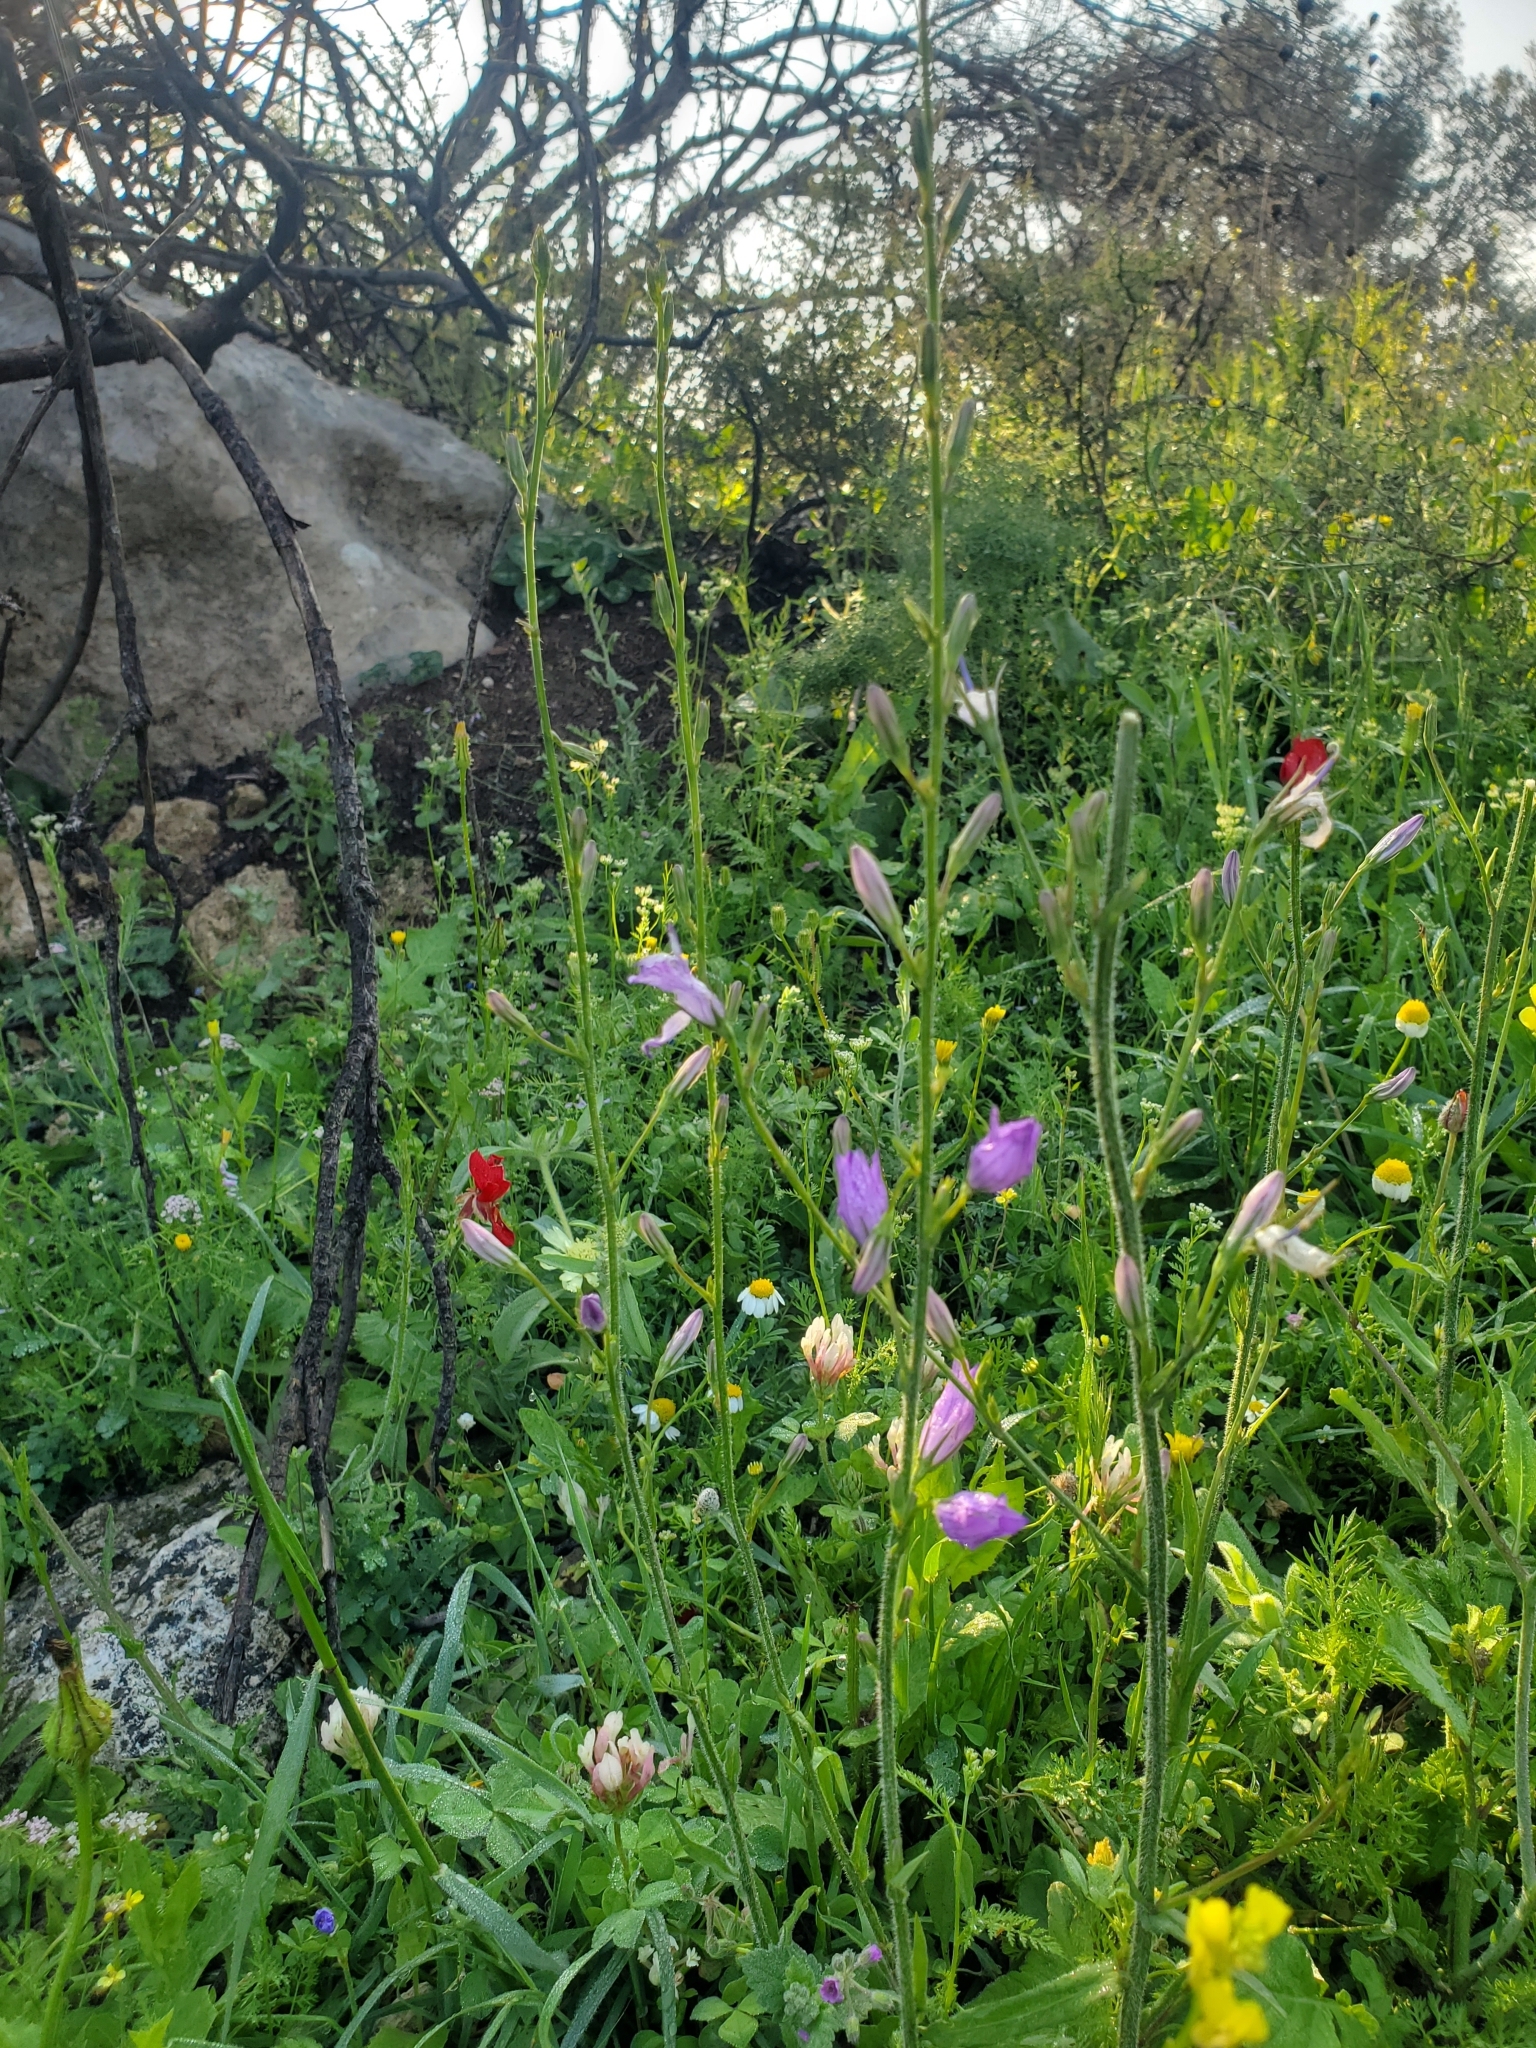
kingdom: Plantae
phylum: Tracheophyta
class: Magnoliopsida
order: Asterales
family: Campanulaceae
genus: Campanula
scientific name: Campanula rapunculus
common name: Rampion bellflower
